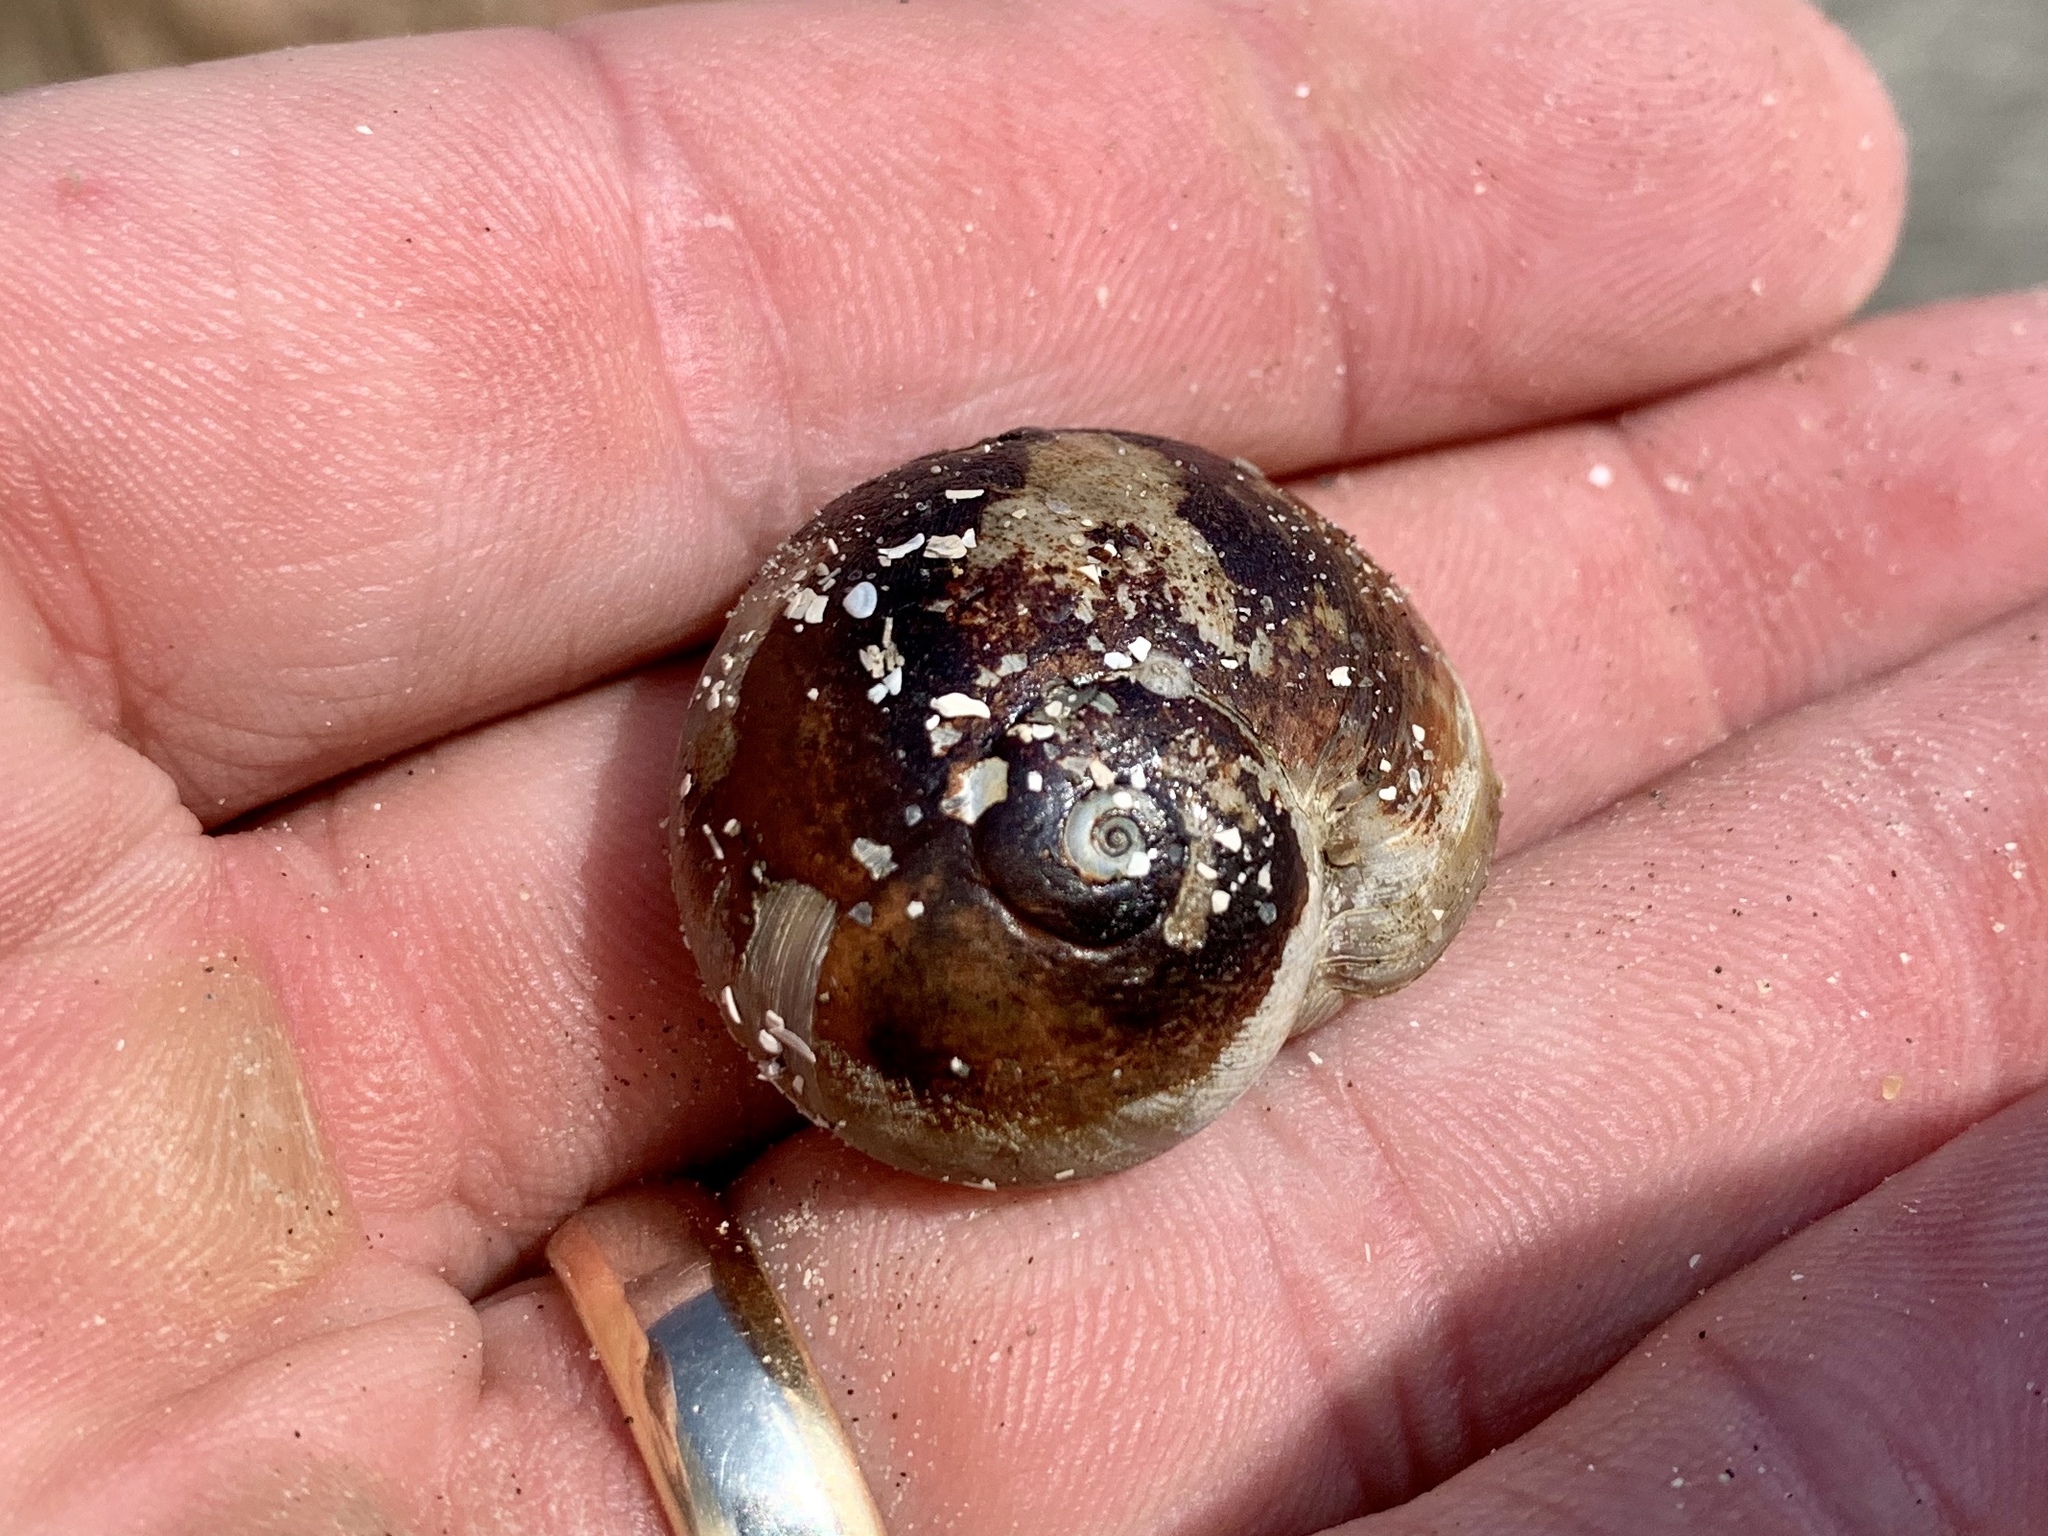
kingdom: Animalia
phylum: Mollusca
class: Gastropoda
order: Littorinimorpha
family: Naticidae
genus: Neverita
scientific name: Neverita delessertiana
